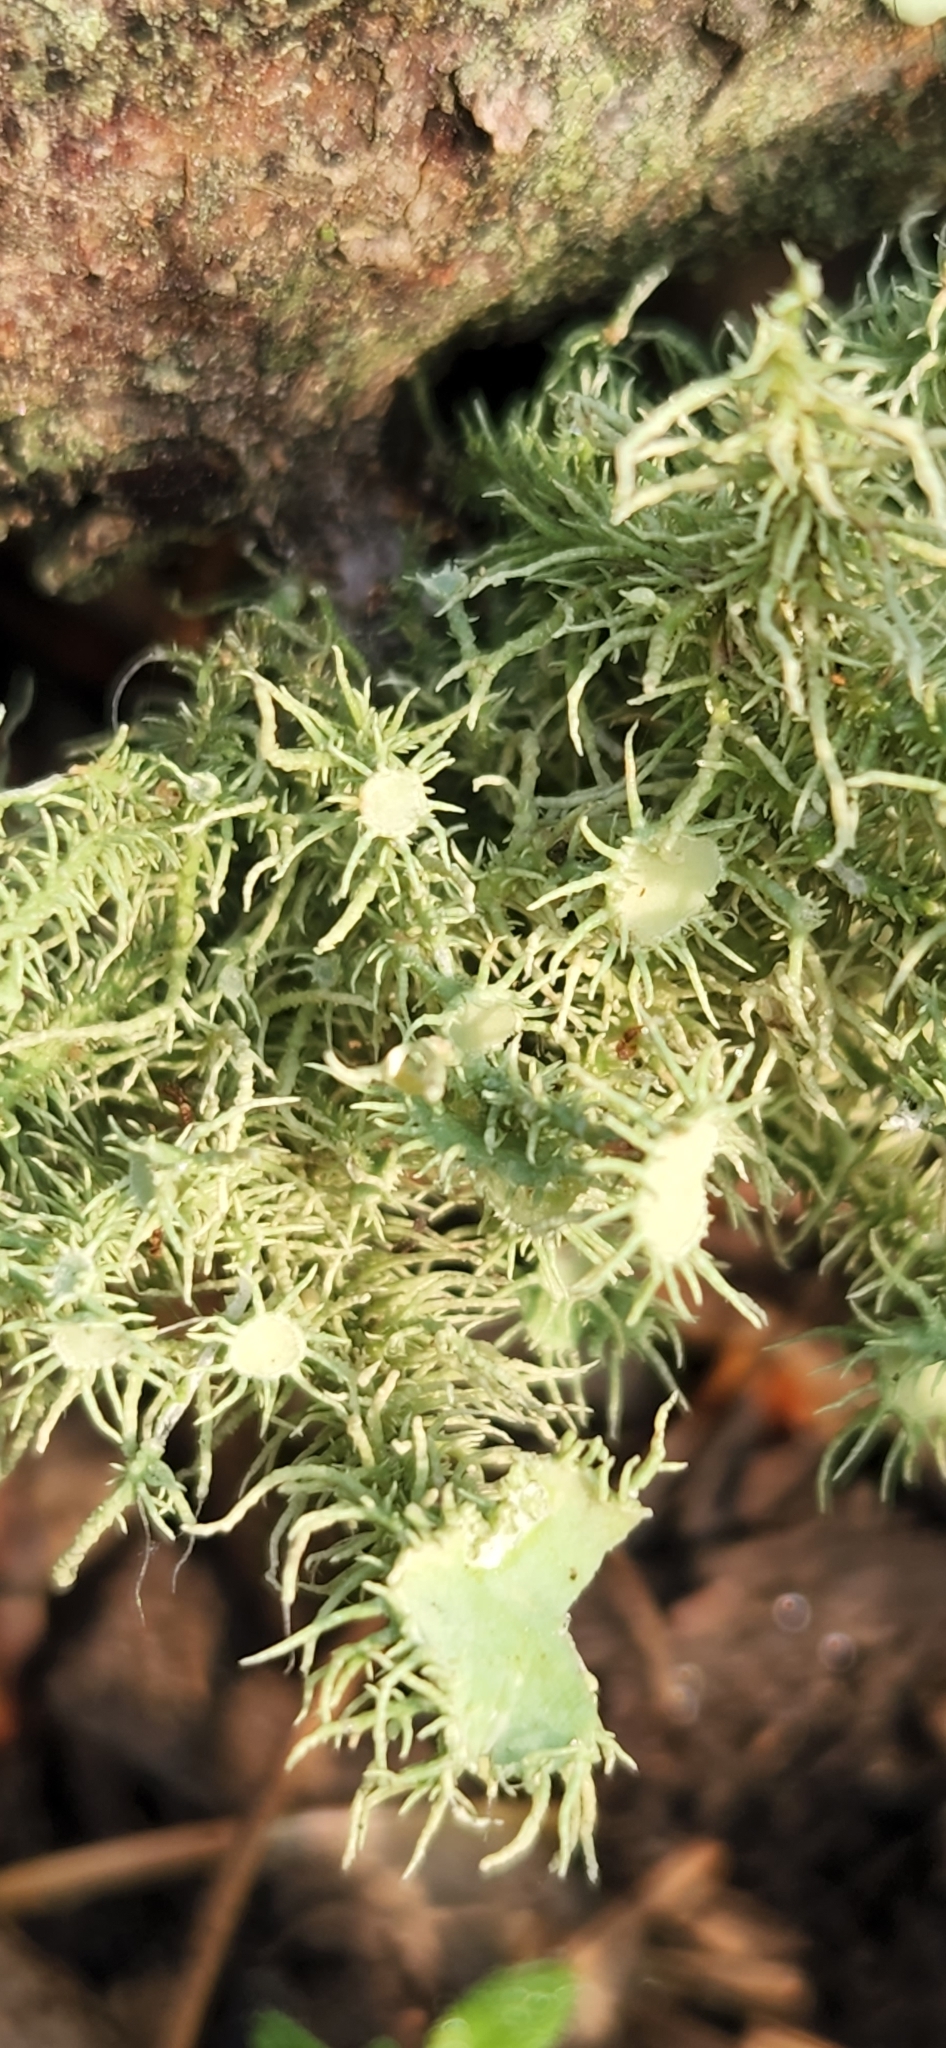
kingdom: Fungi
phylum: Ascomycota
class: Lecanoromycetes
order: Lecanorales
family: Parmeliaceae
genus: Usnea
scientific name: Usnea strigosa
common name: Bushy beard lichen
